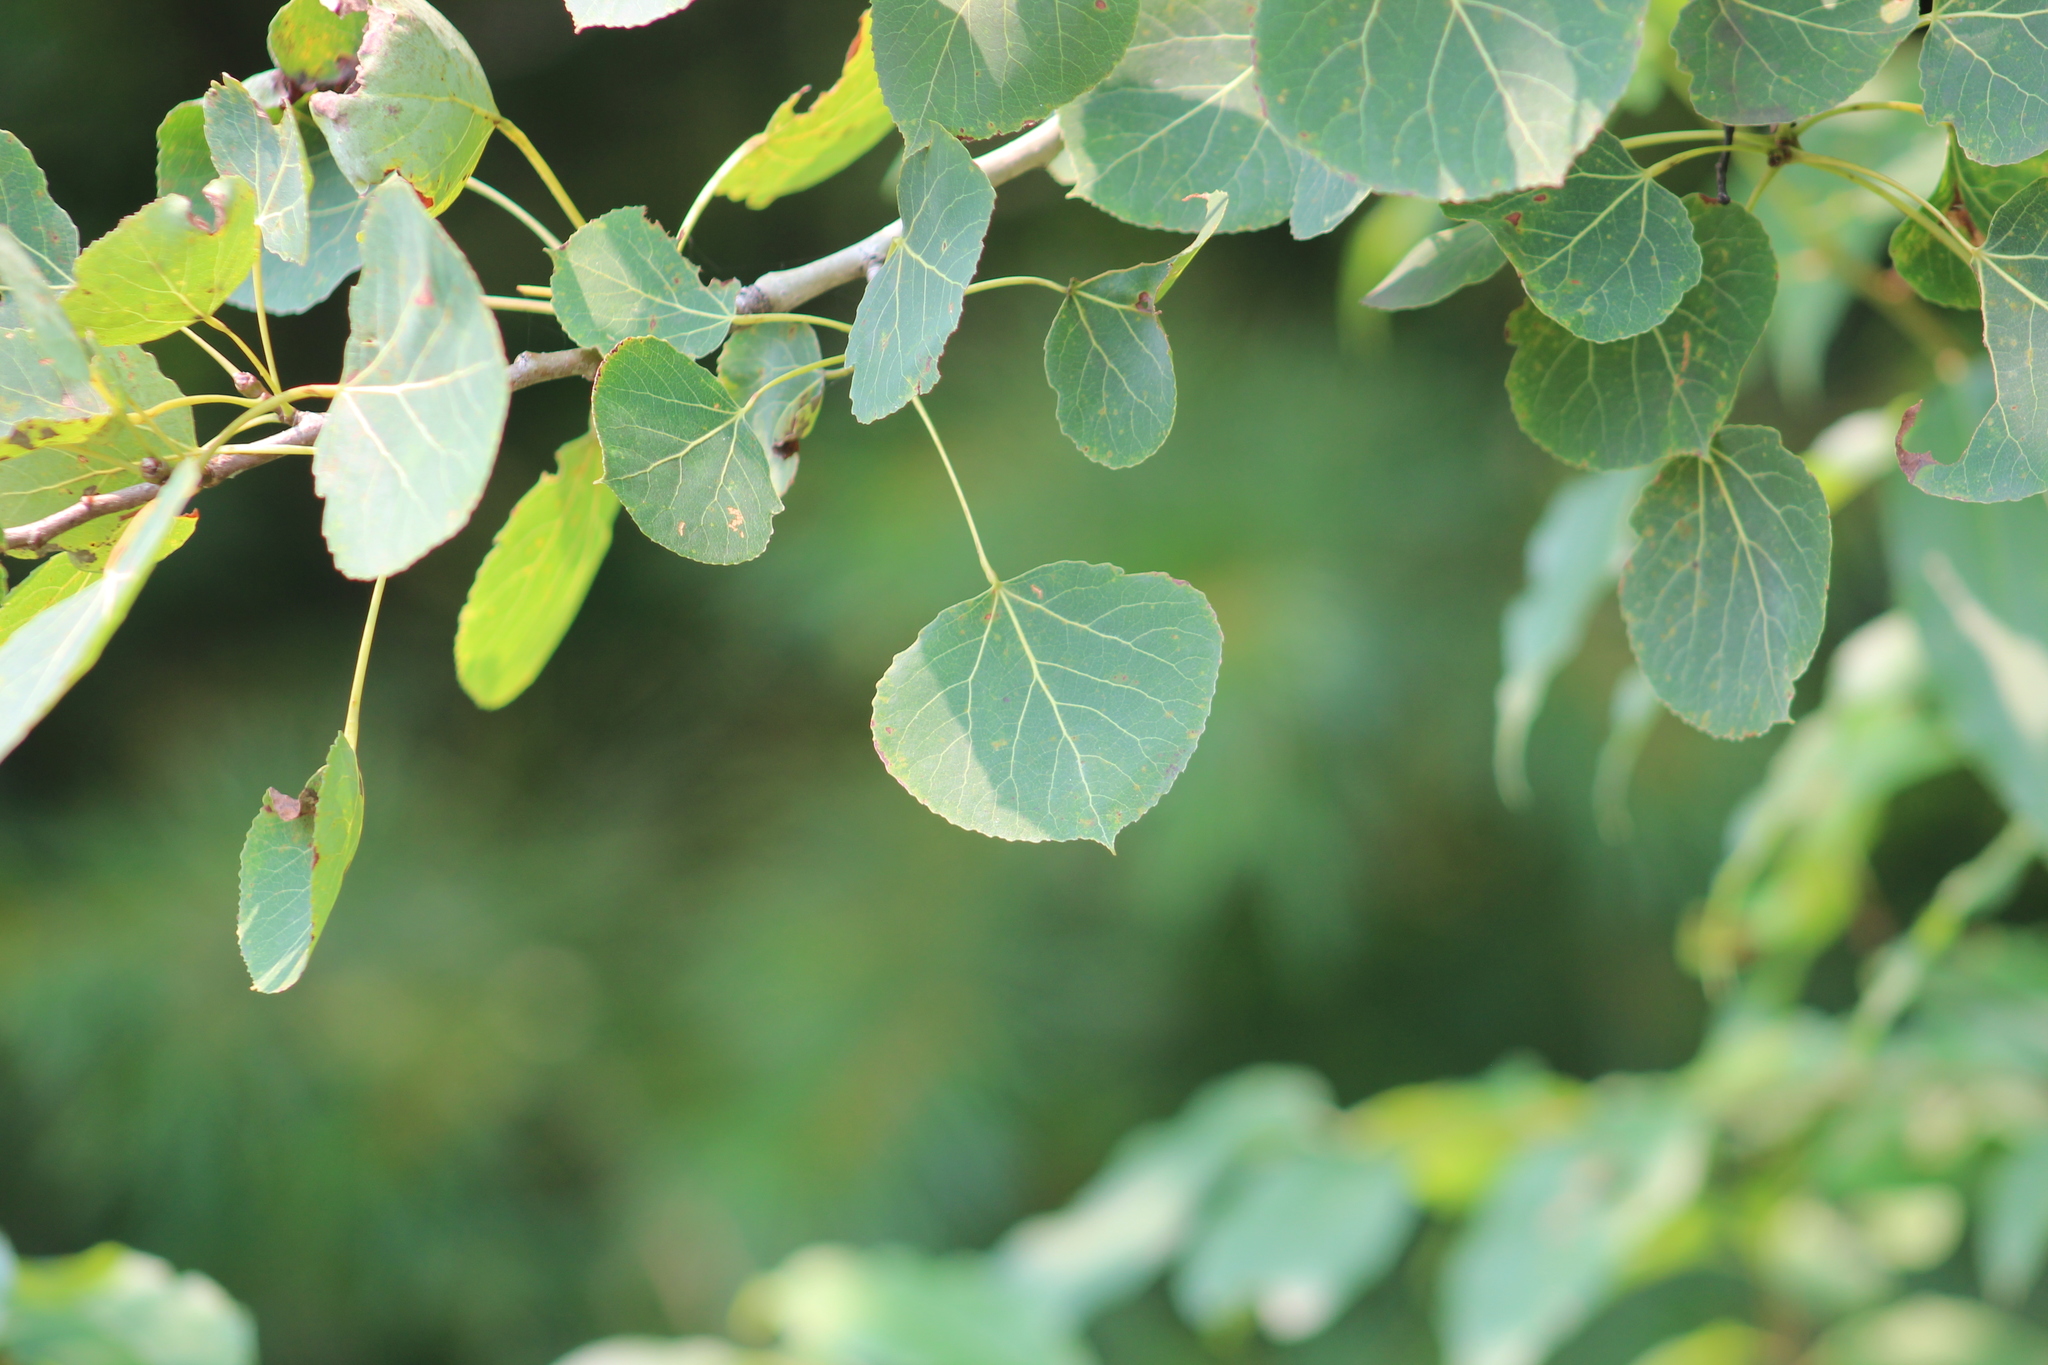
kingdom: Plantae
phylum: Tracheophyta
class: Magnoliopsida
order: Malpighiales
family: Salicaceae
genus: Populus
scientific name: Populus tremuloides
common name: Quaking aspen
